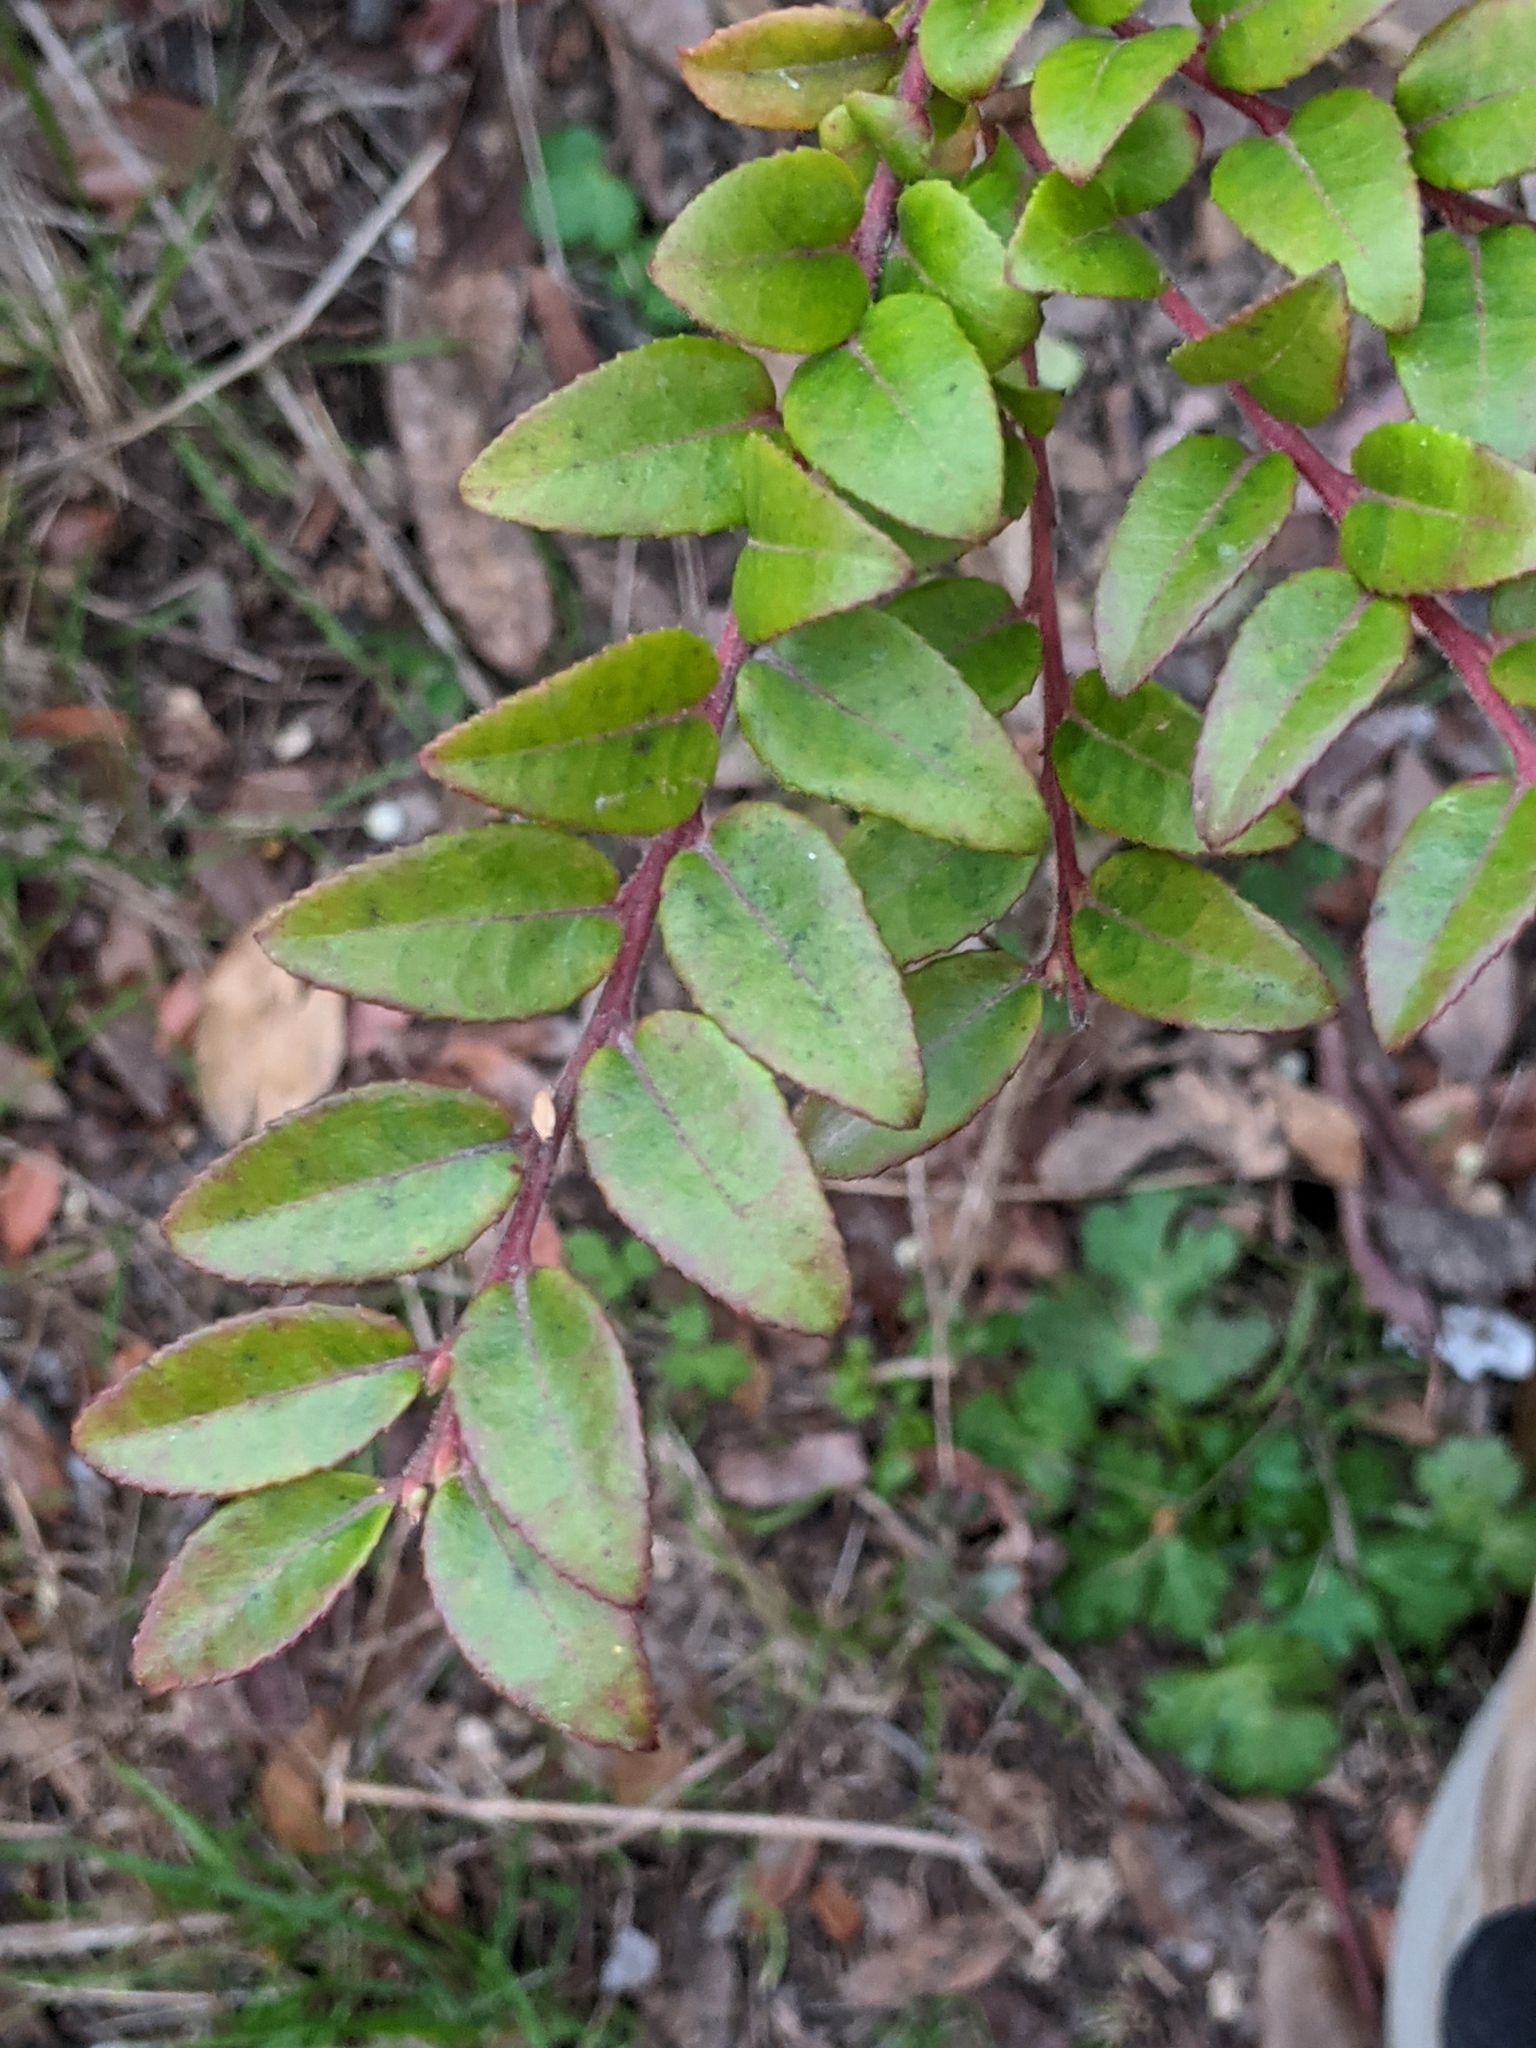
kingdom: Plantae
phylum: Tracheophyta
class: Magnoliopsida
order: Ericales
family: Ericaceae
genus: Vaccinium
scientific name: Vaccinium ovatum
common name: California-huckleberry
